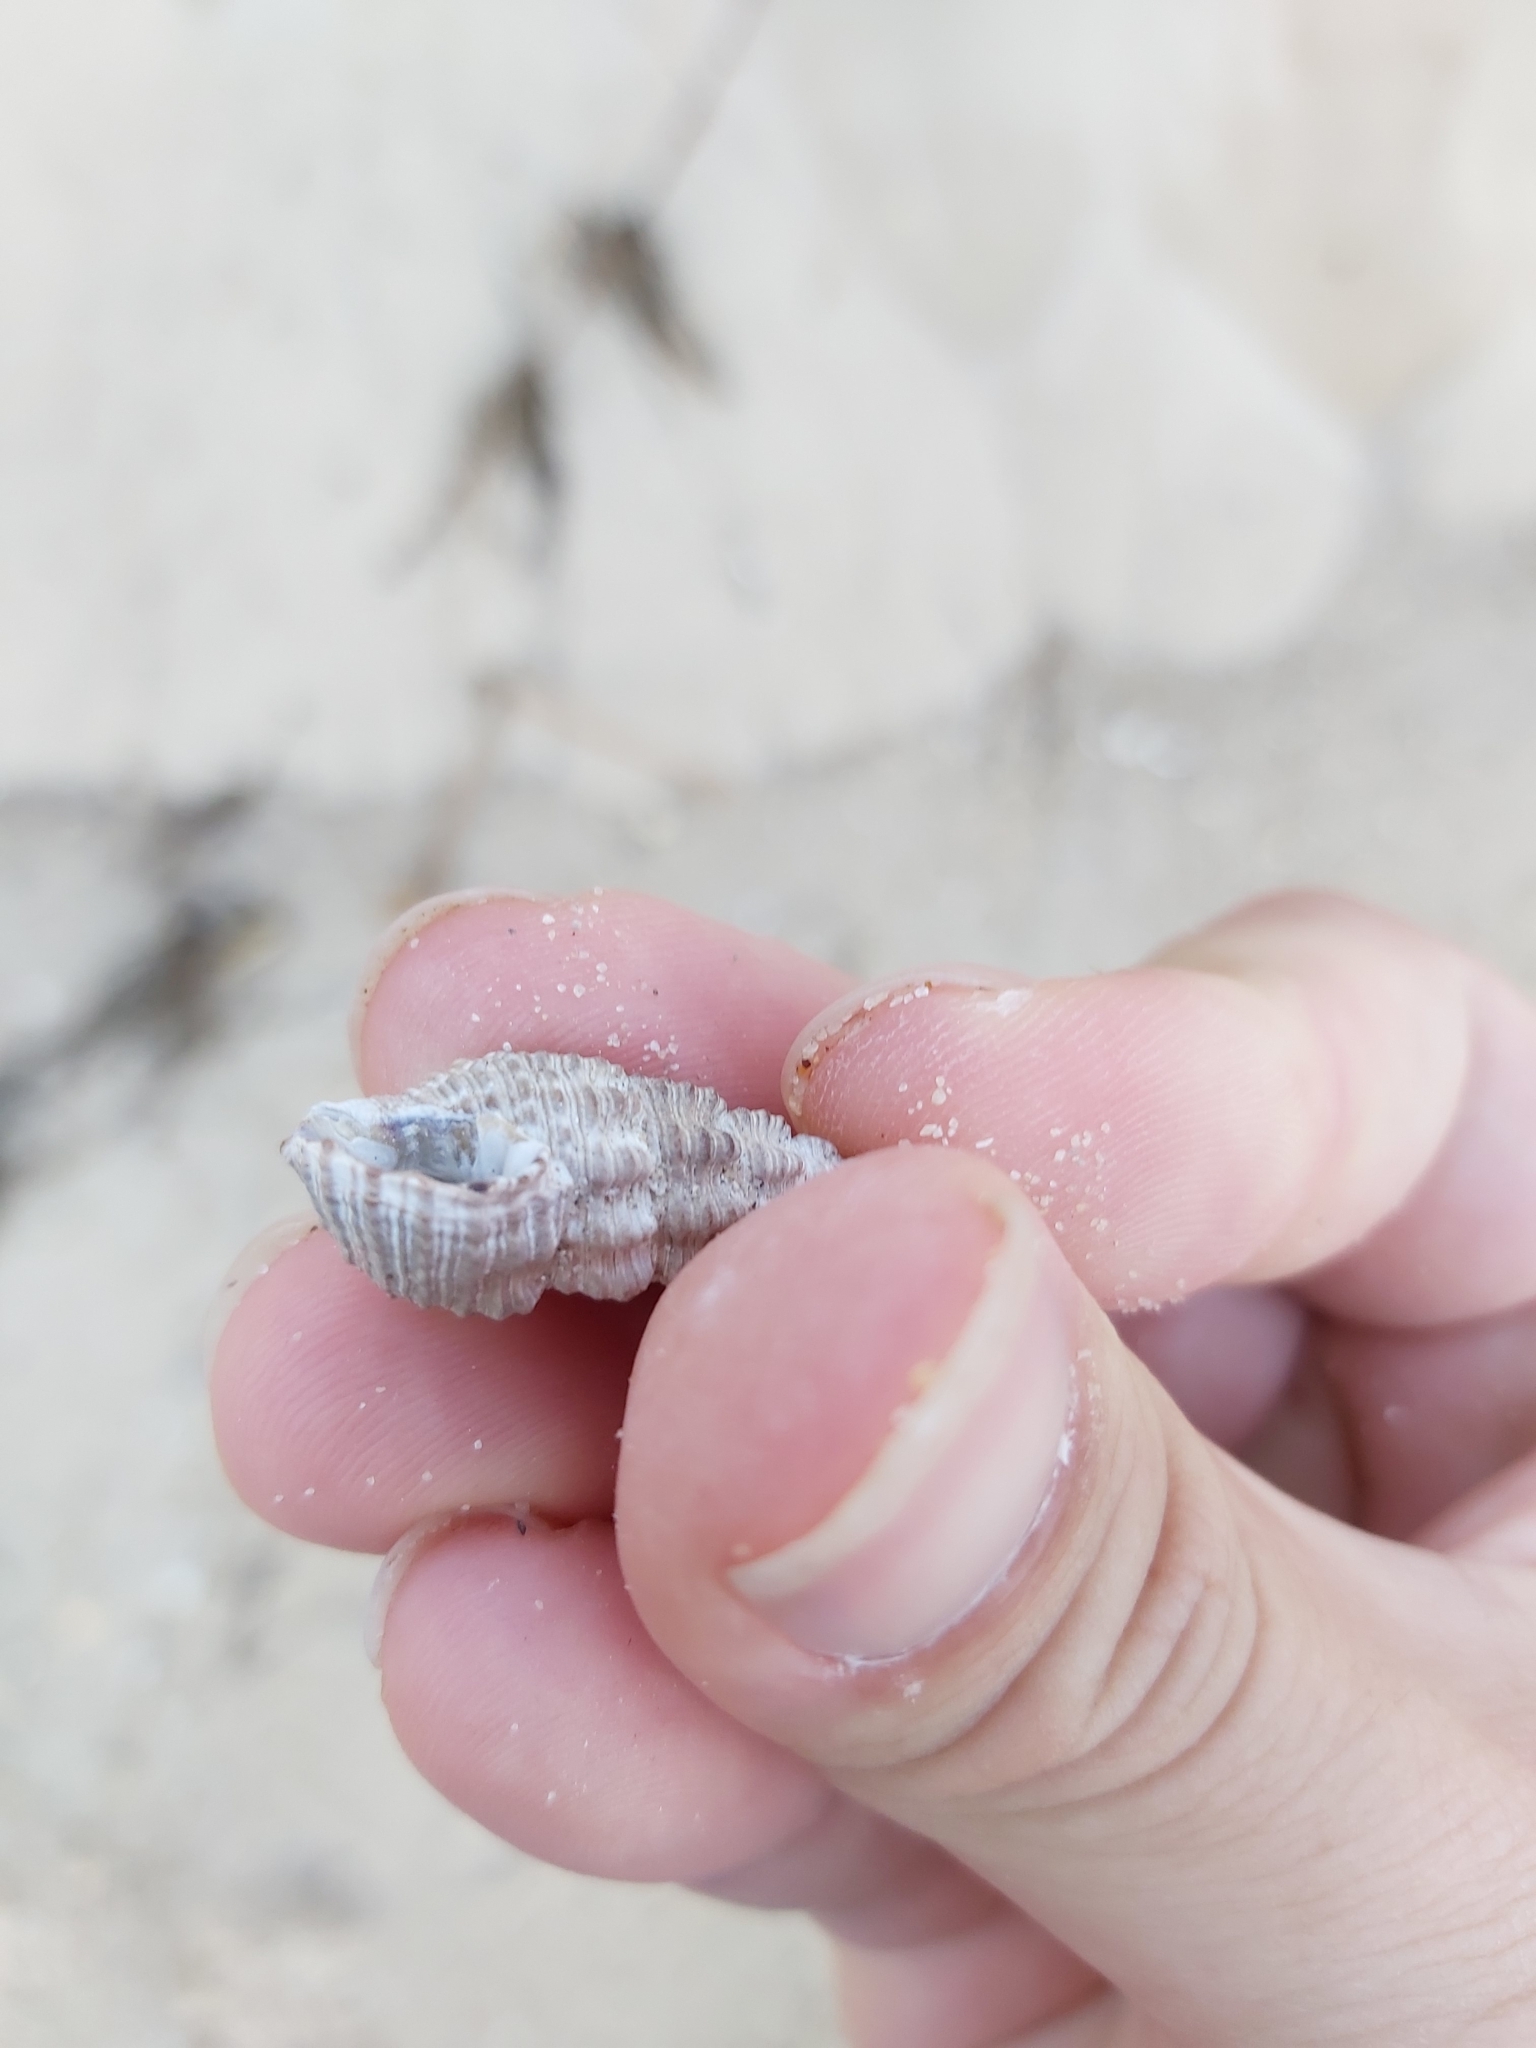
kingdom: Animalia
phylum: Mollusca
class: Gastropoda
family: Batillariidae
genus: Batillaria
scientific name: Batillaria australis
